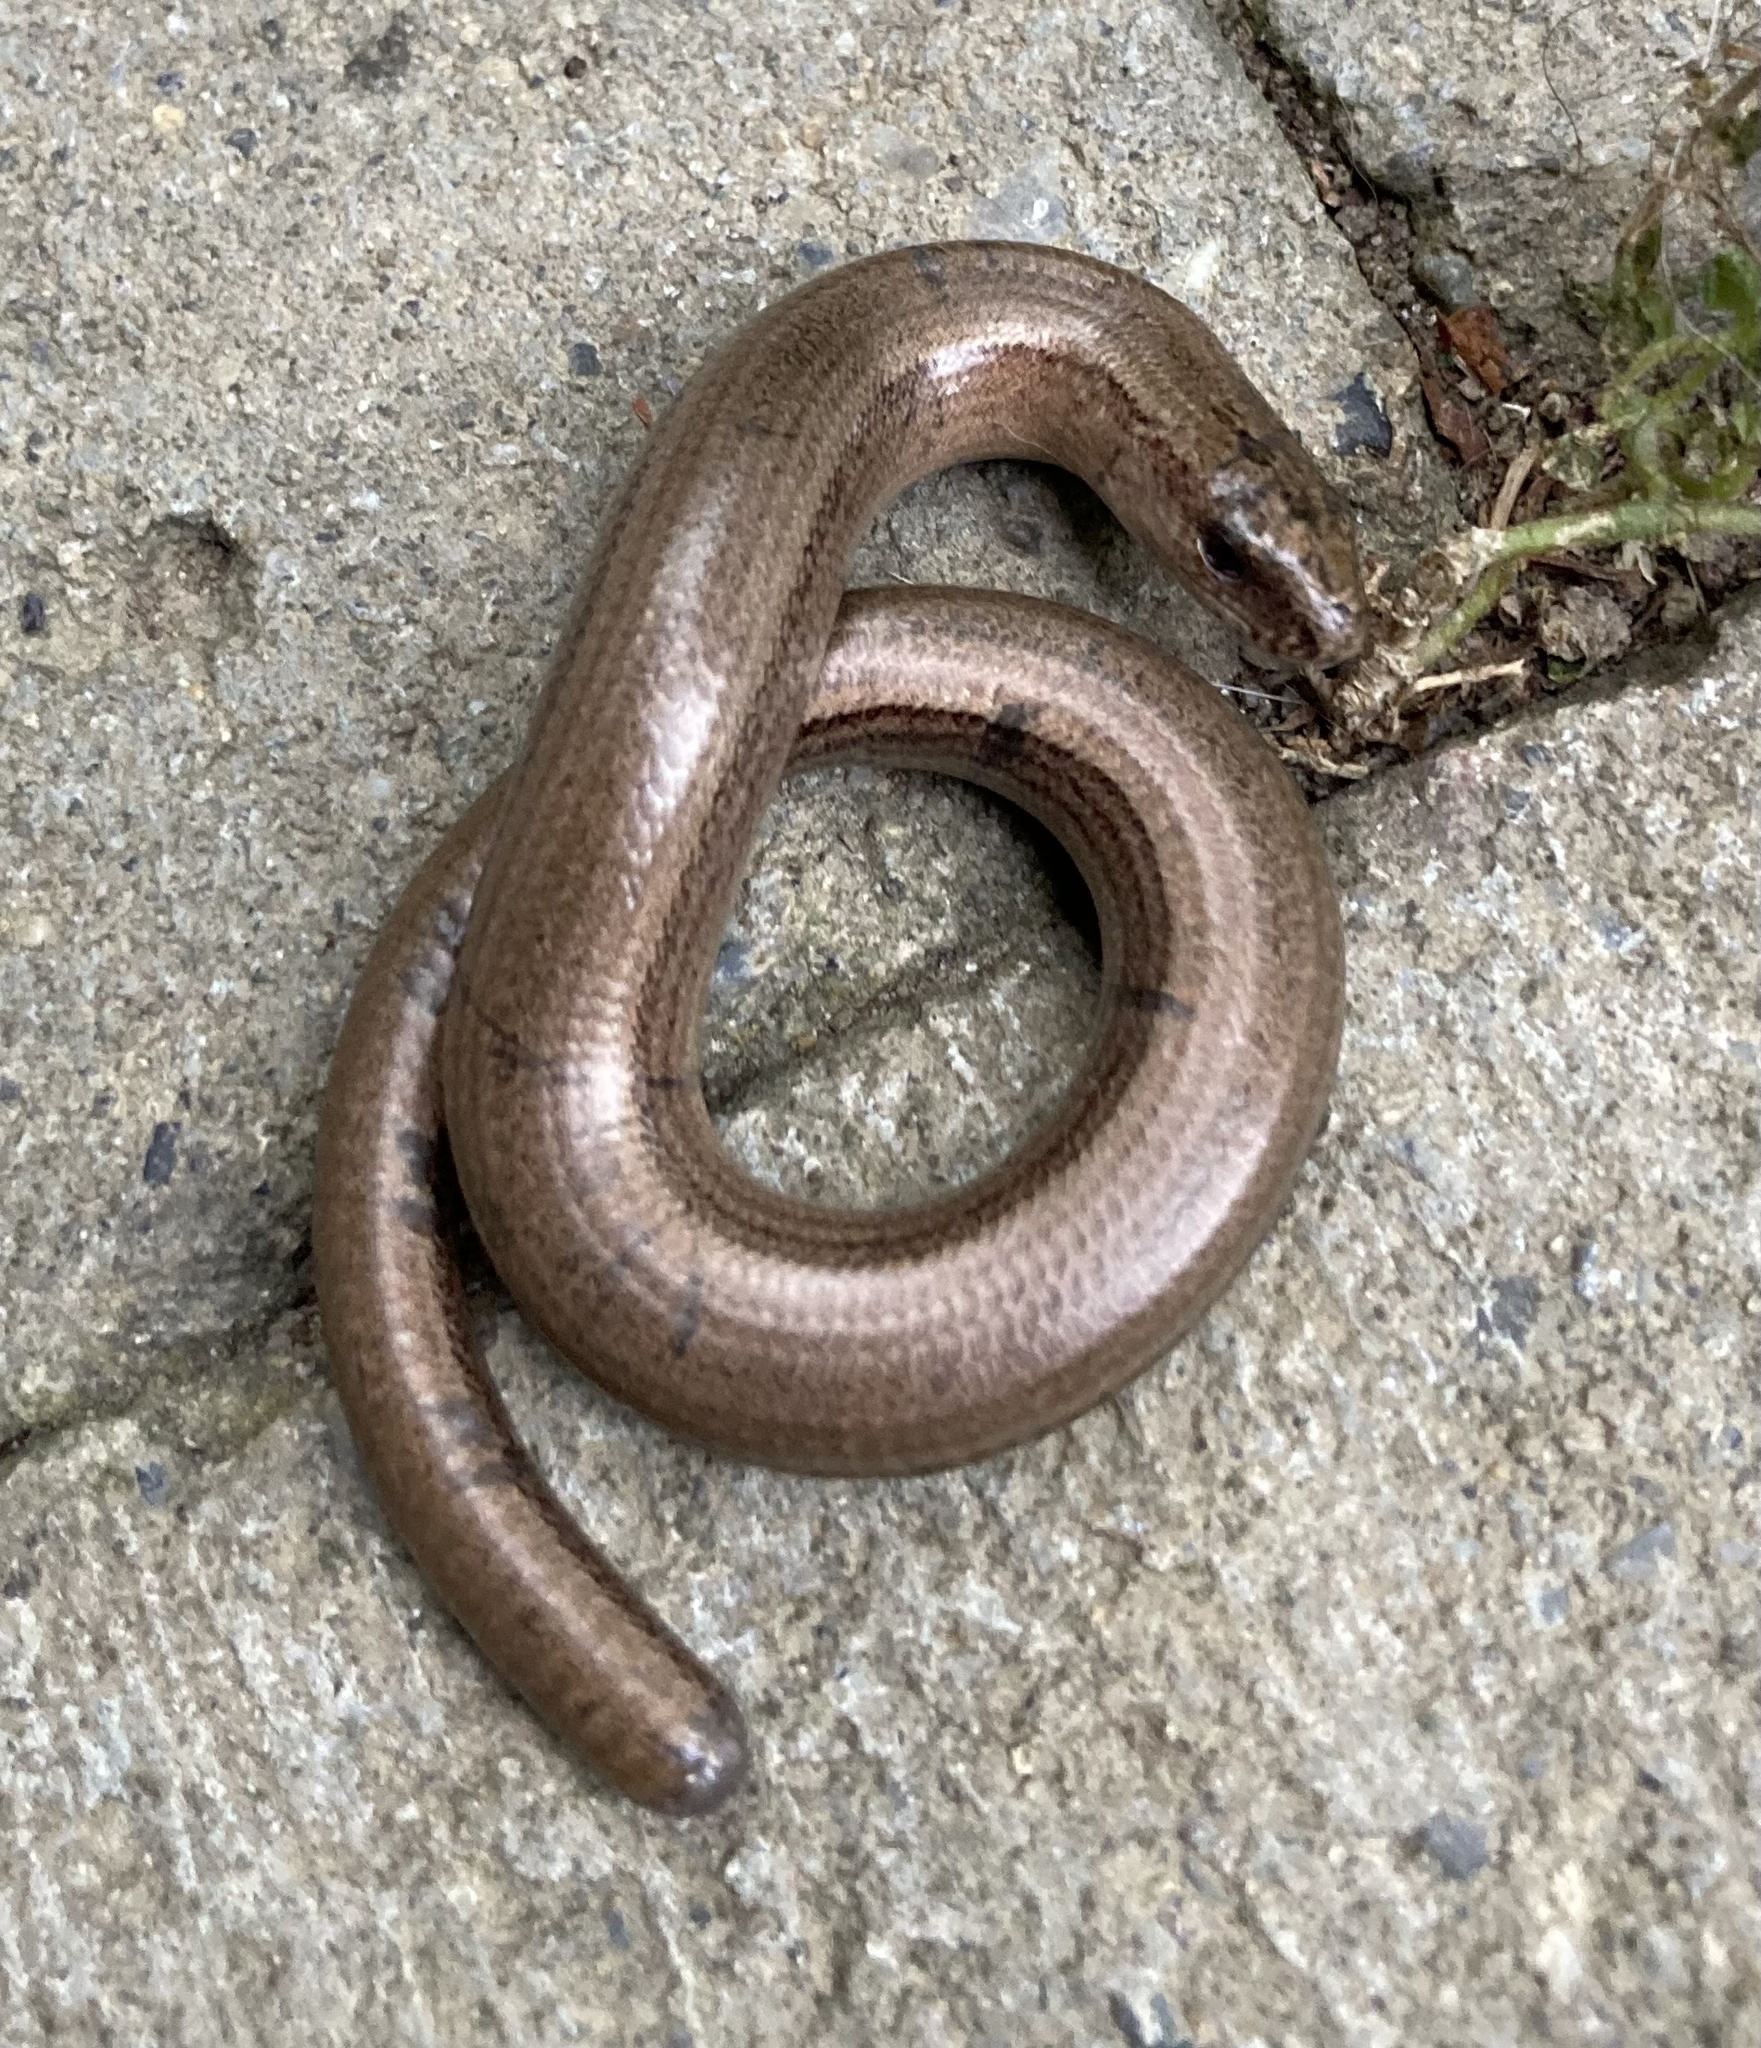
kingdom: Animalia
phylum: Chordata
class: Squamata
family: Anguidae
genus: Anguis
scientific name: Anguis fragilis
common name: Slow worm
